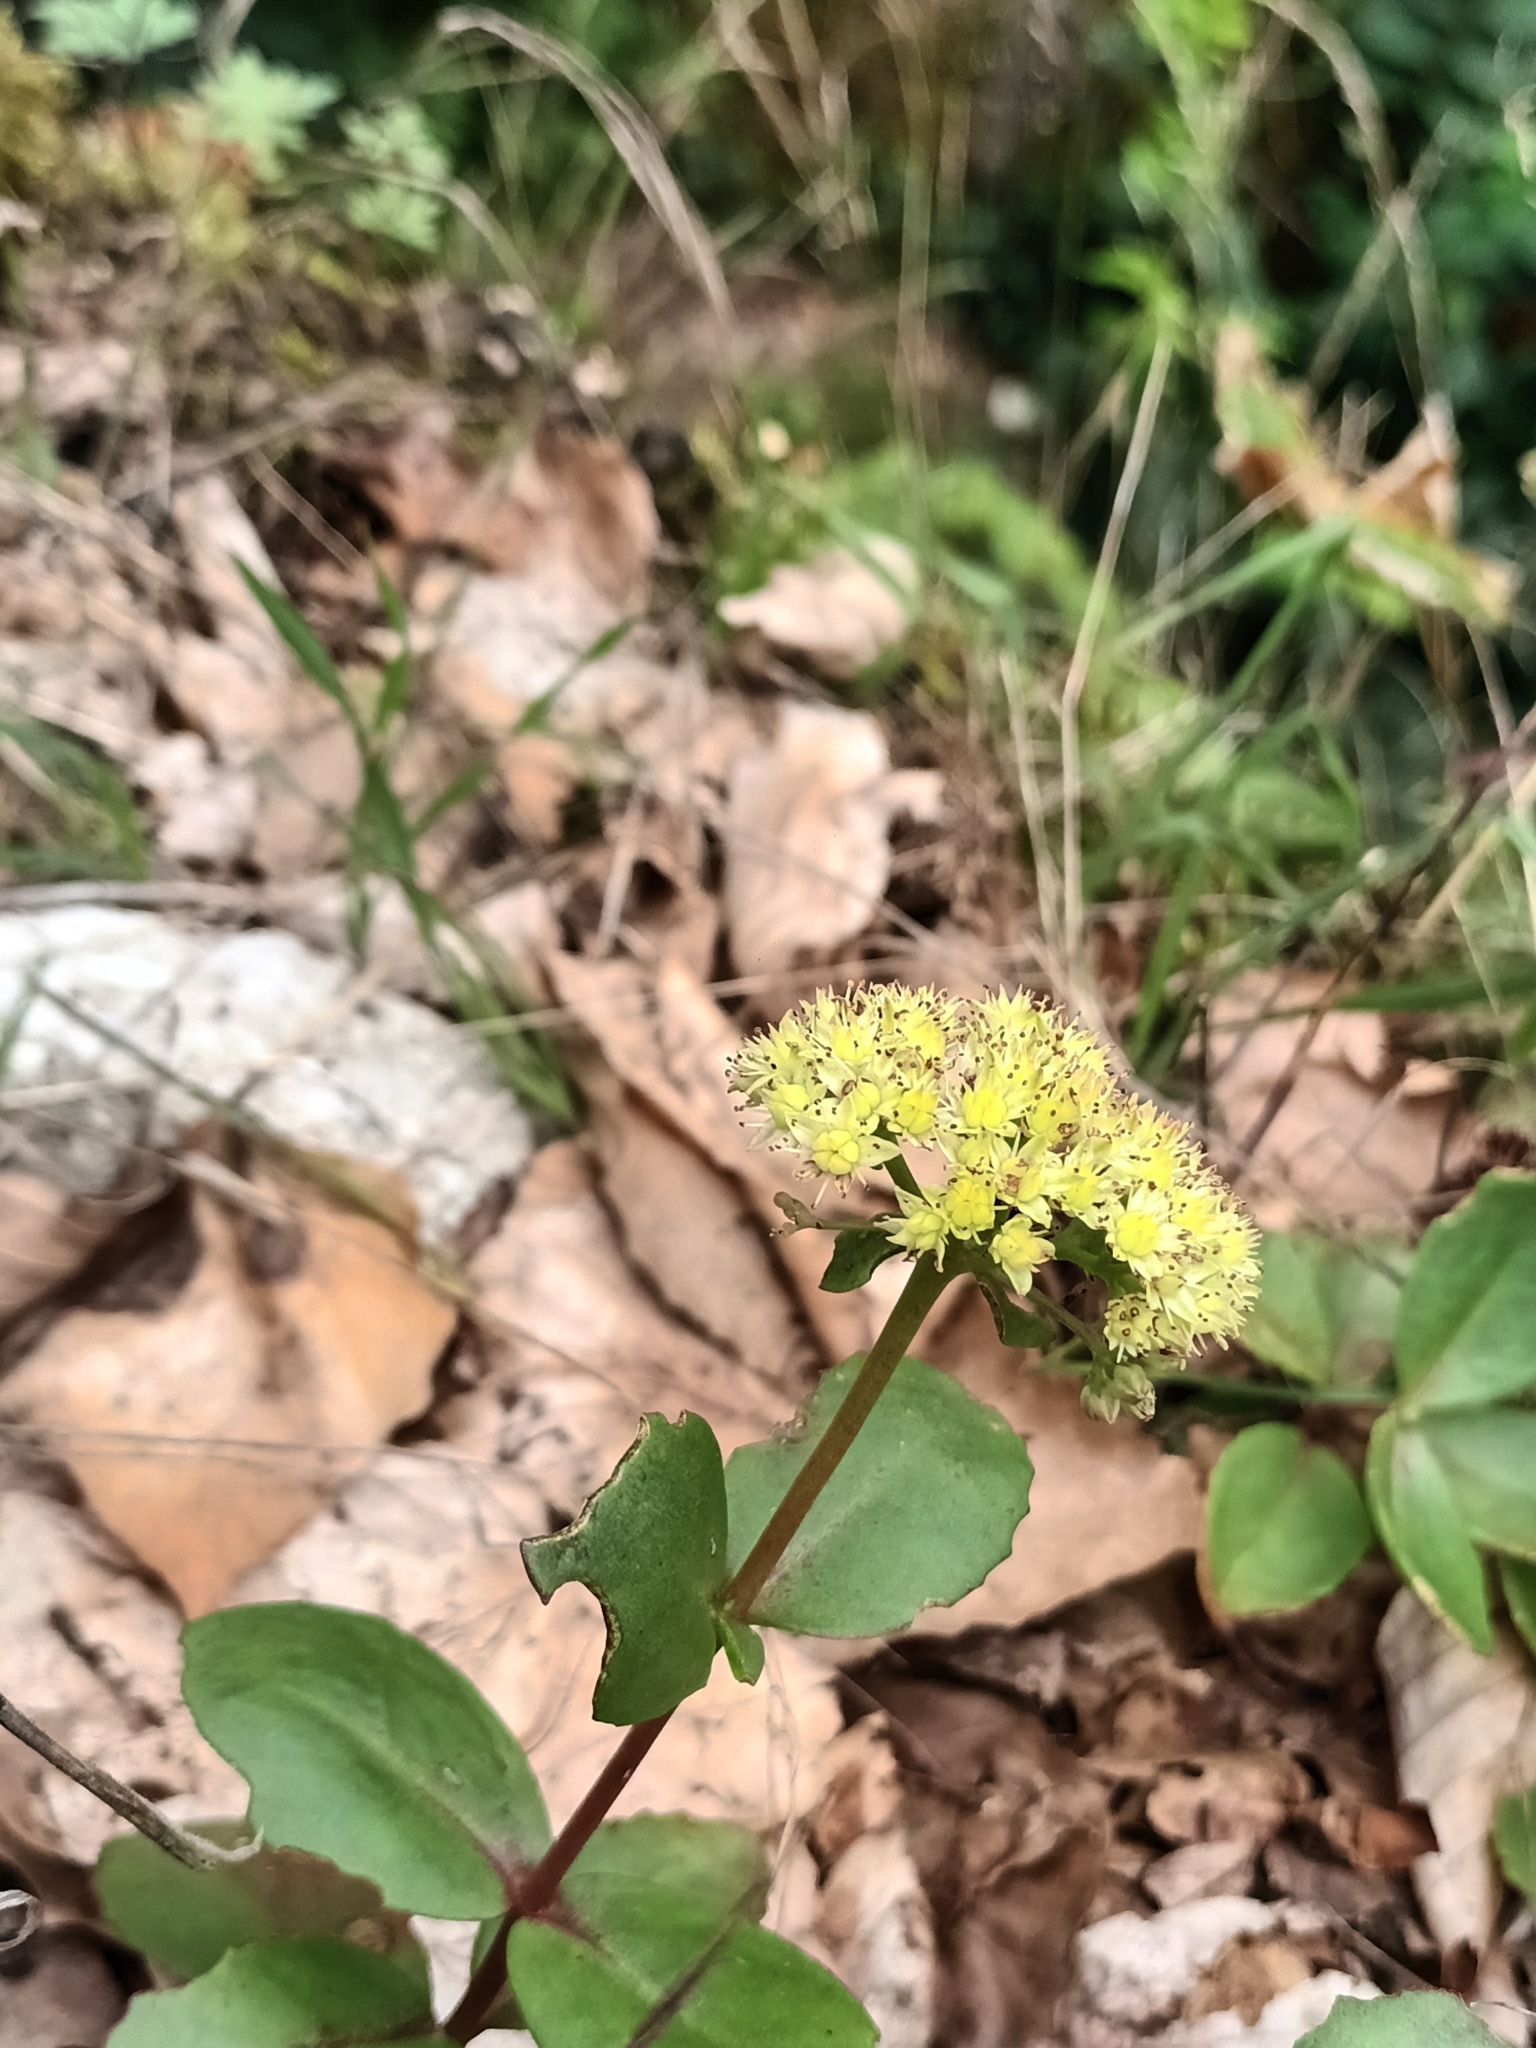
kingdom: Plantae
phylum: Tracheophyta
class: Magnoliopsida
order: Saxifragales
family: Crassulaceae
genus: Hylotelephium
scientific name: Hylotelephium maximum
